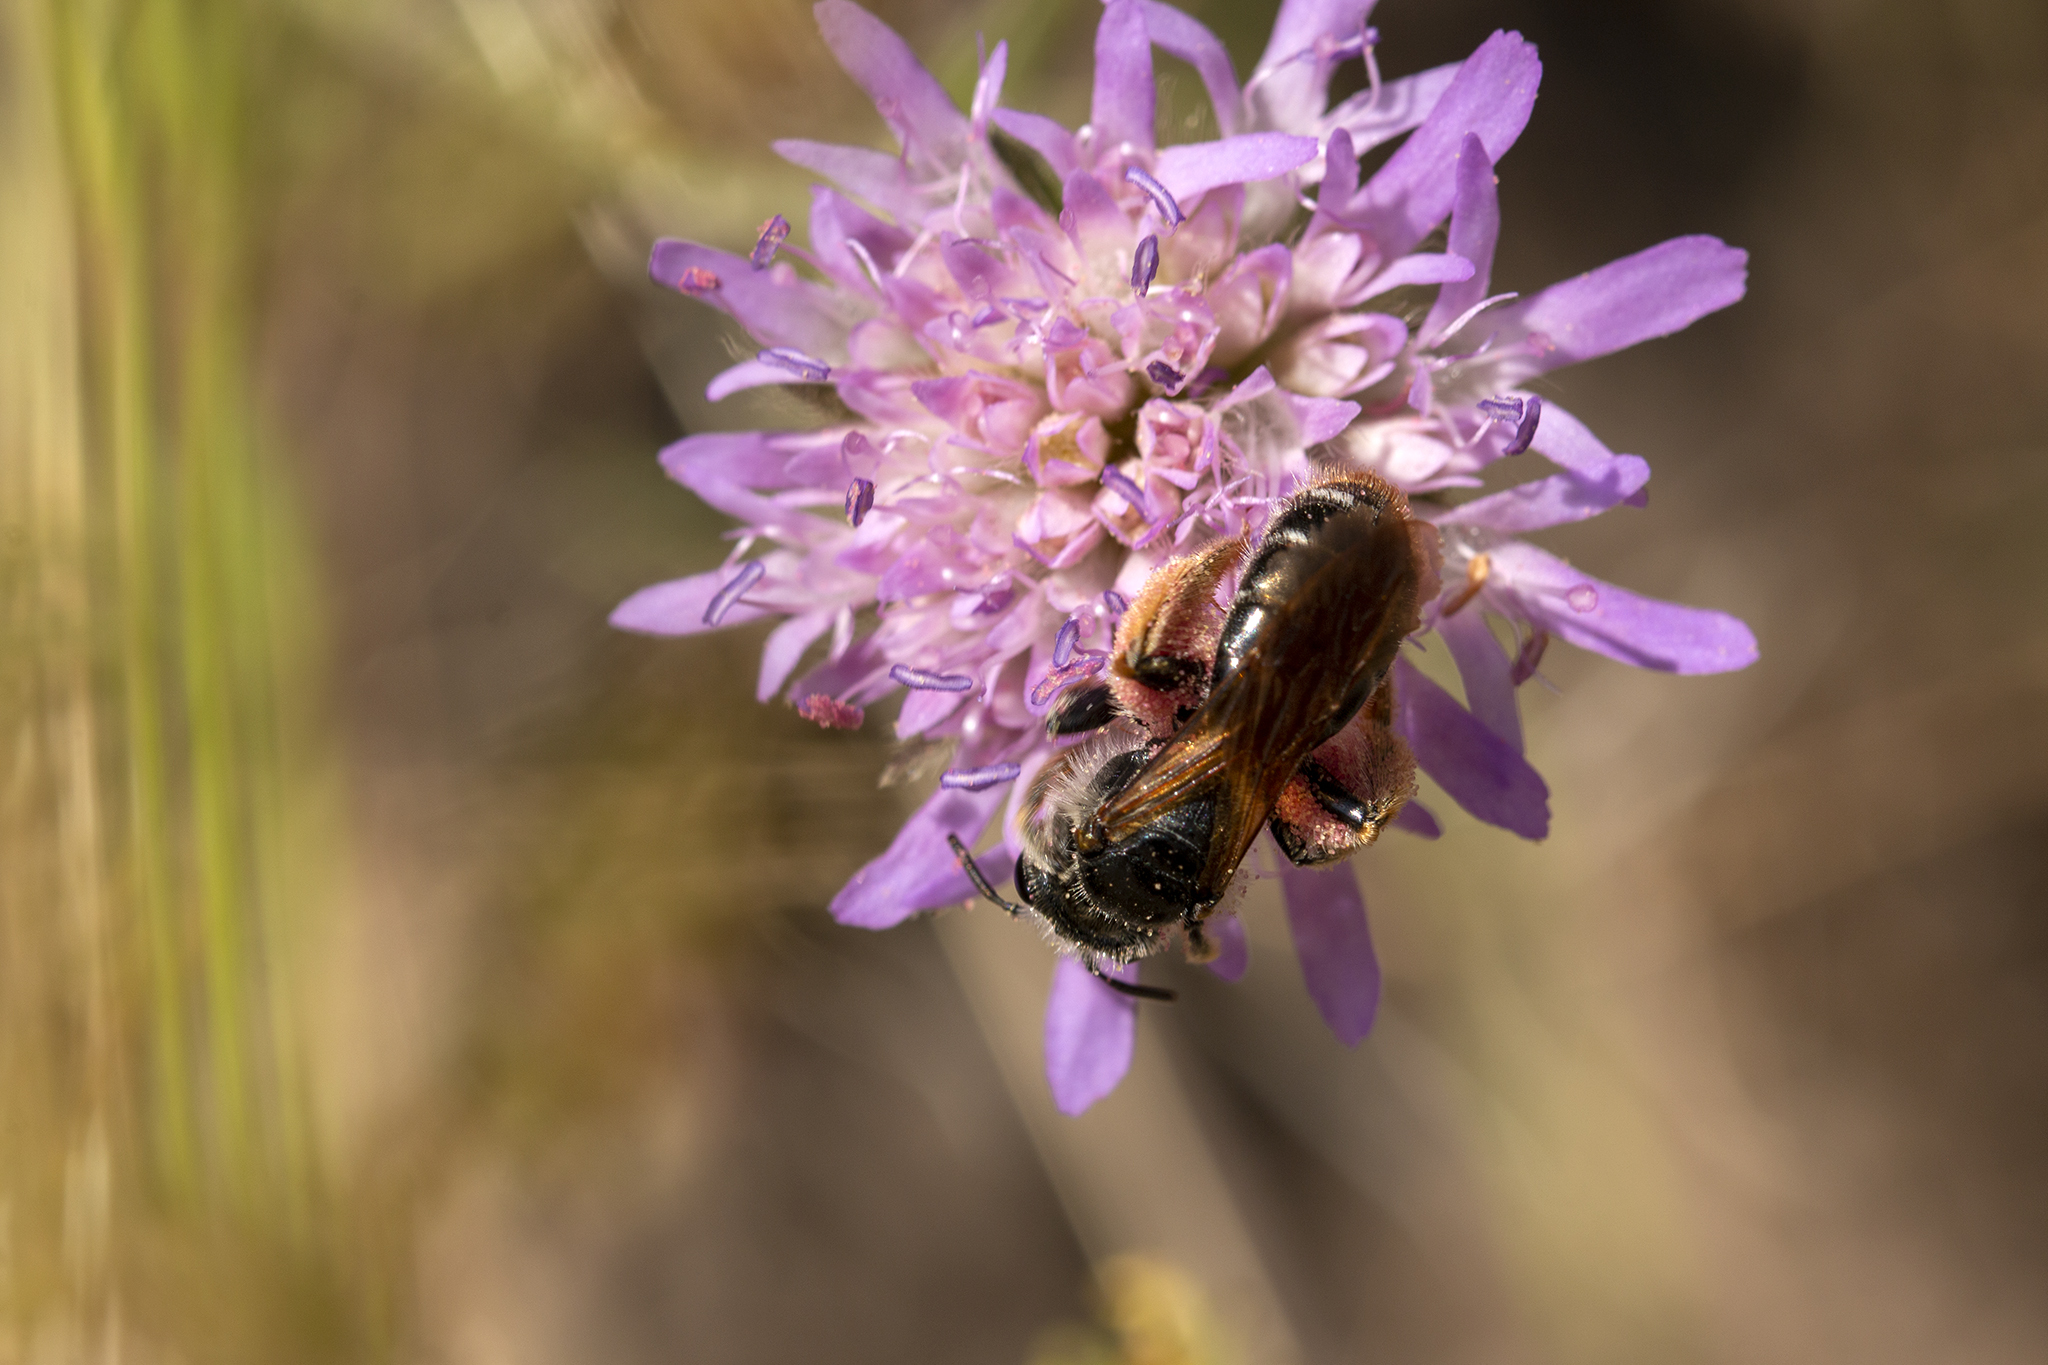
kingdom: Animalia
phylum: Arthropoda
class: Insecta
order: Hymenoptera
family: Andrenidae
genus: Andrena
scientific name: Andrena hattorfiana
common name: Large scabious mining bee
